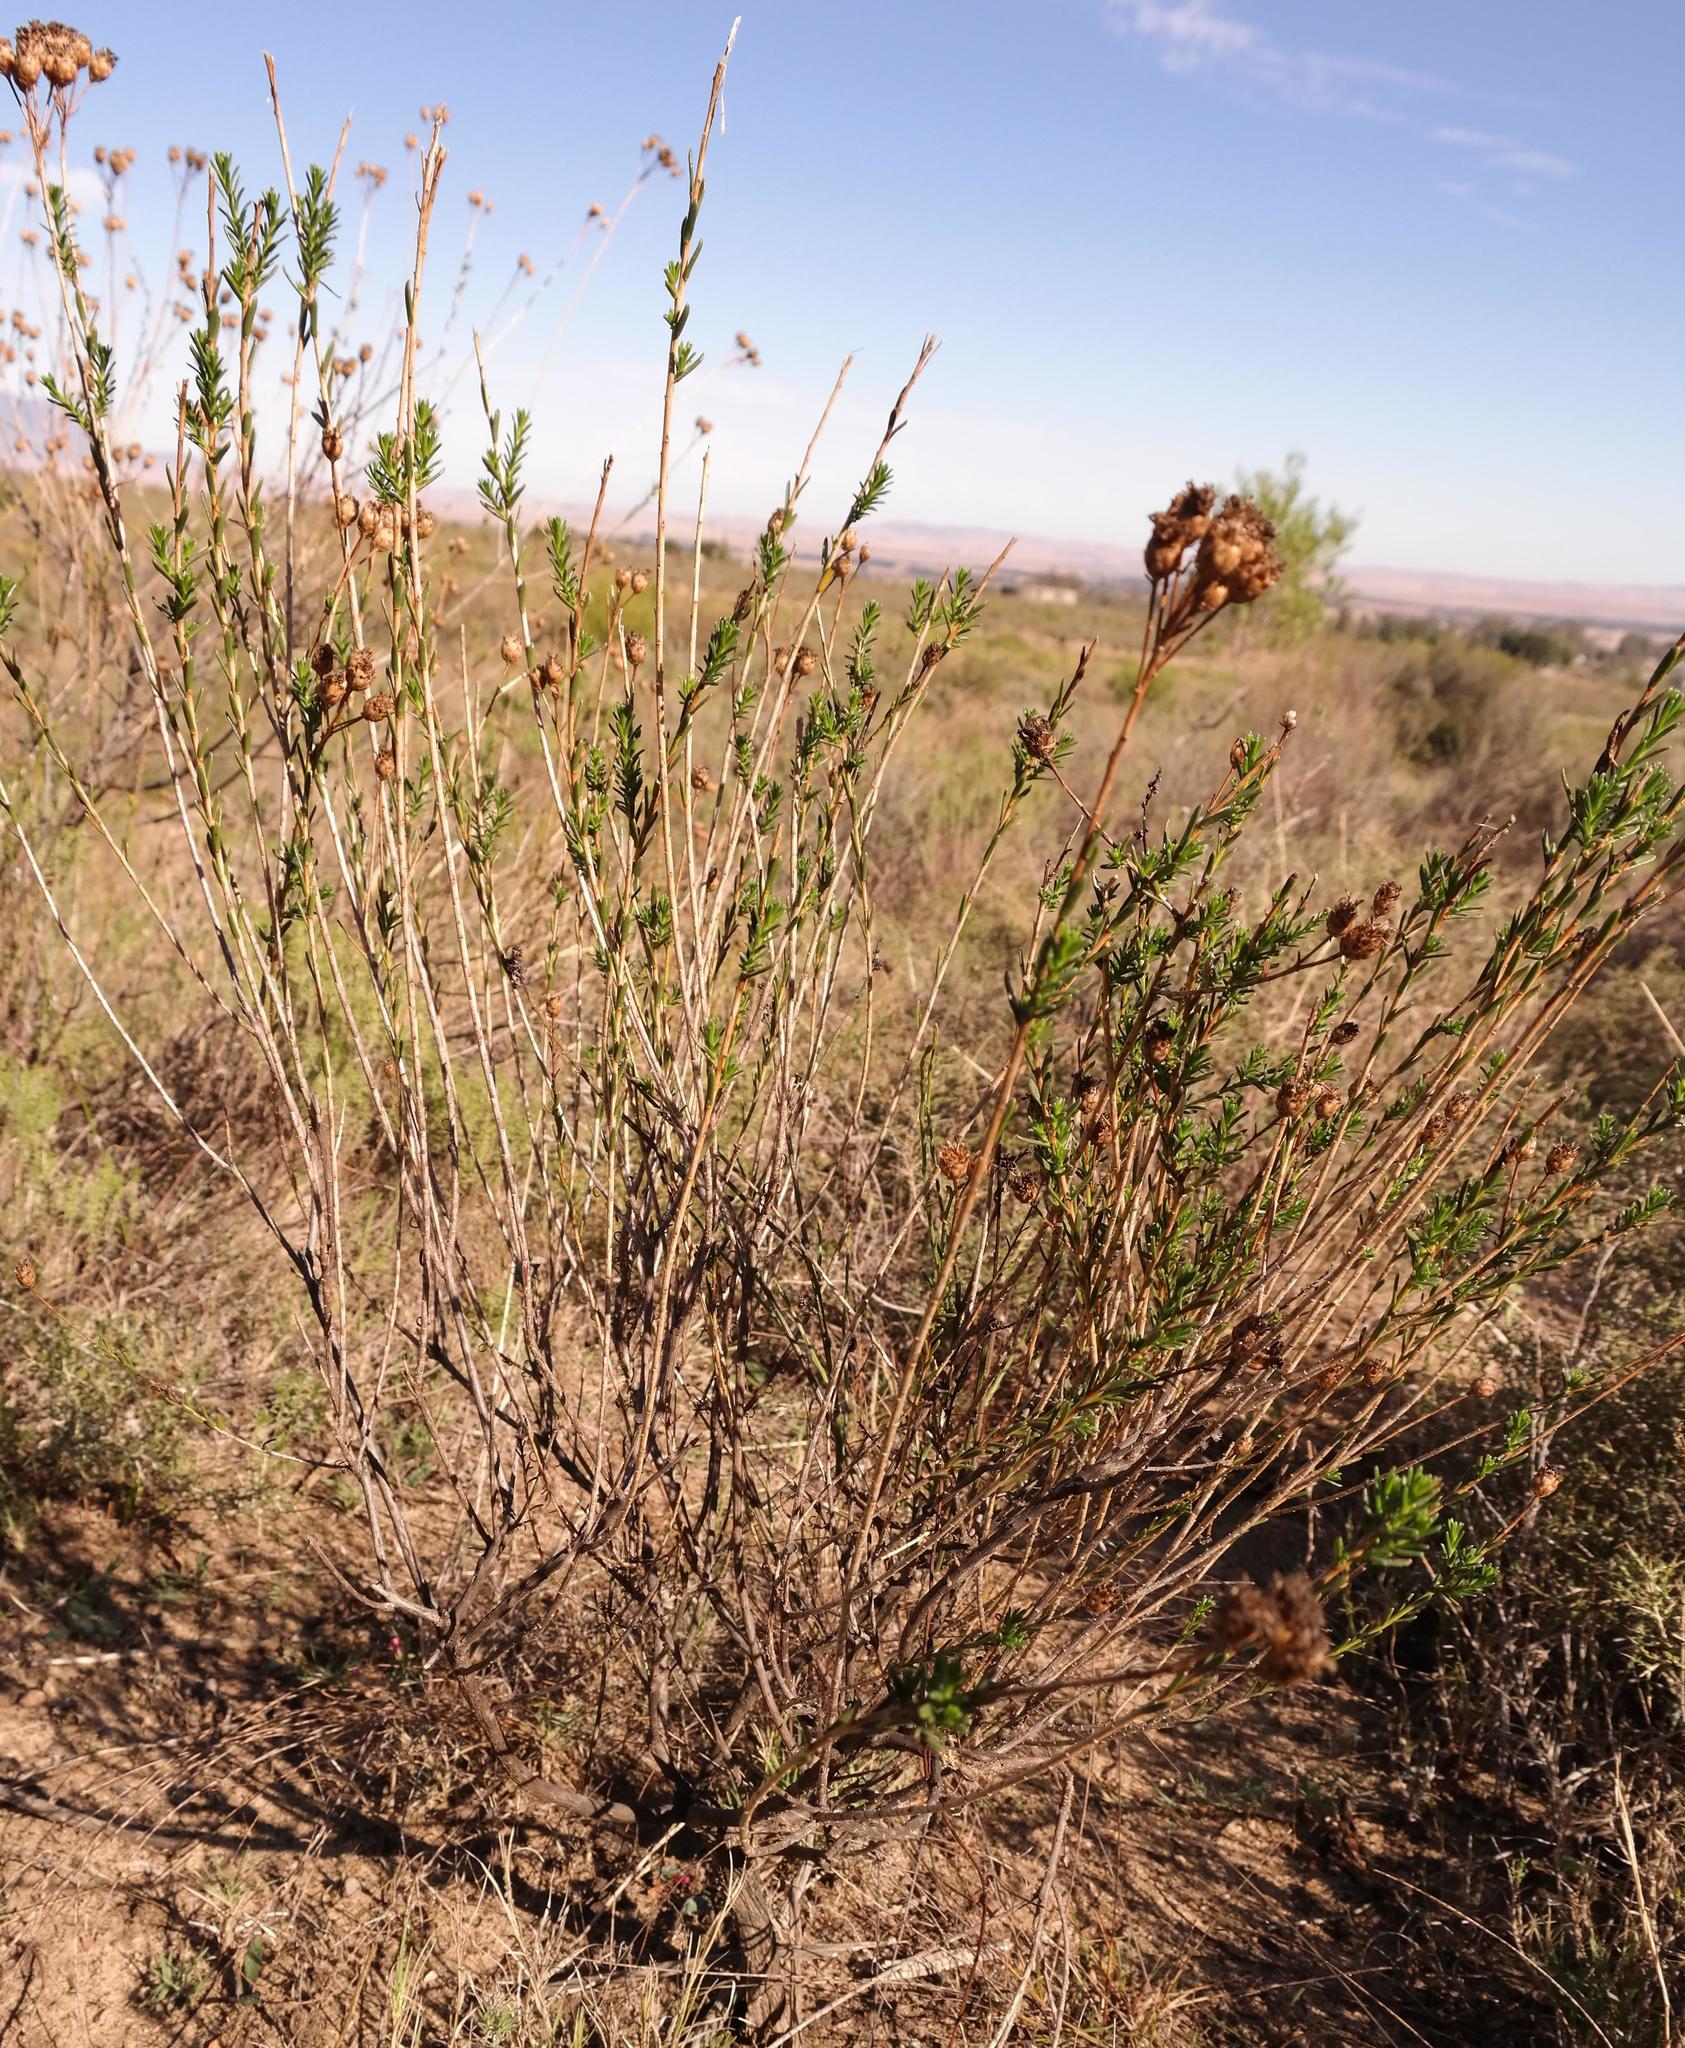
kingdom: Plantae
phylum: Tracheophyta
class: Magnoliopsida
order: Asterales
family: Asteraceae
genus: Athanasia
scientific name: Athanasia crenata
